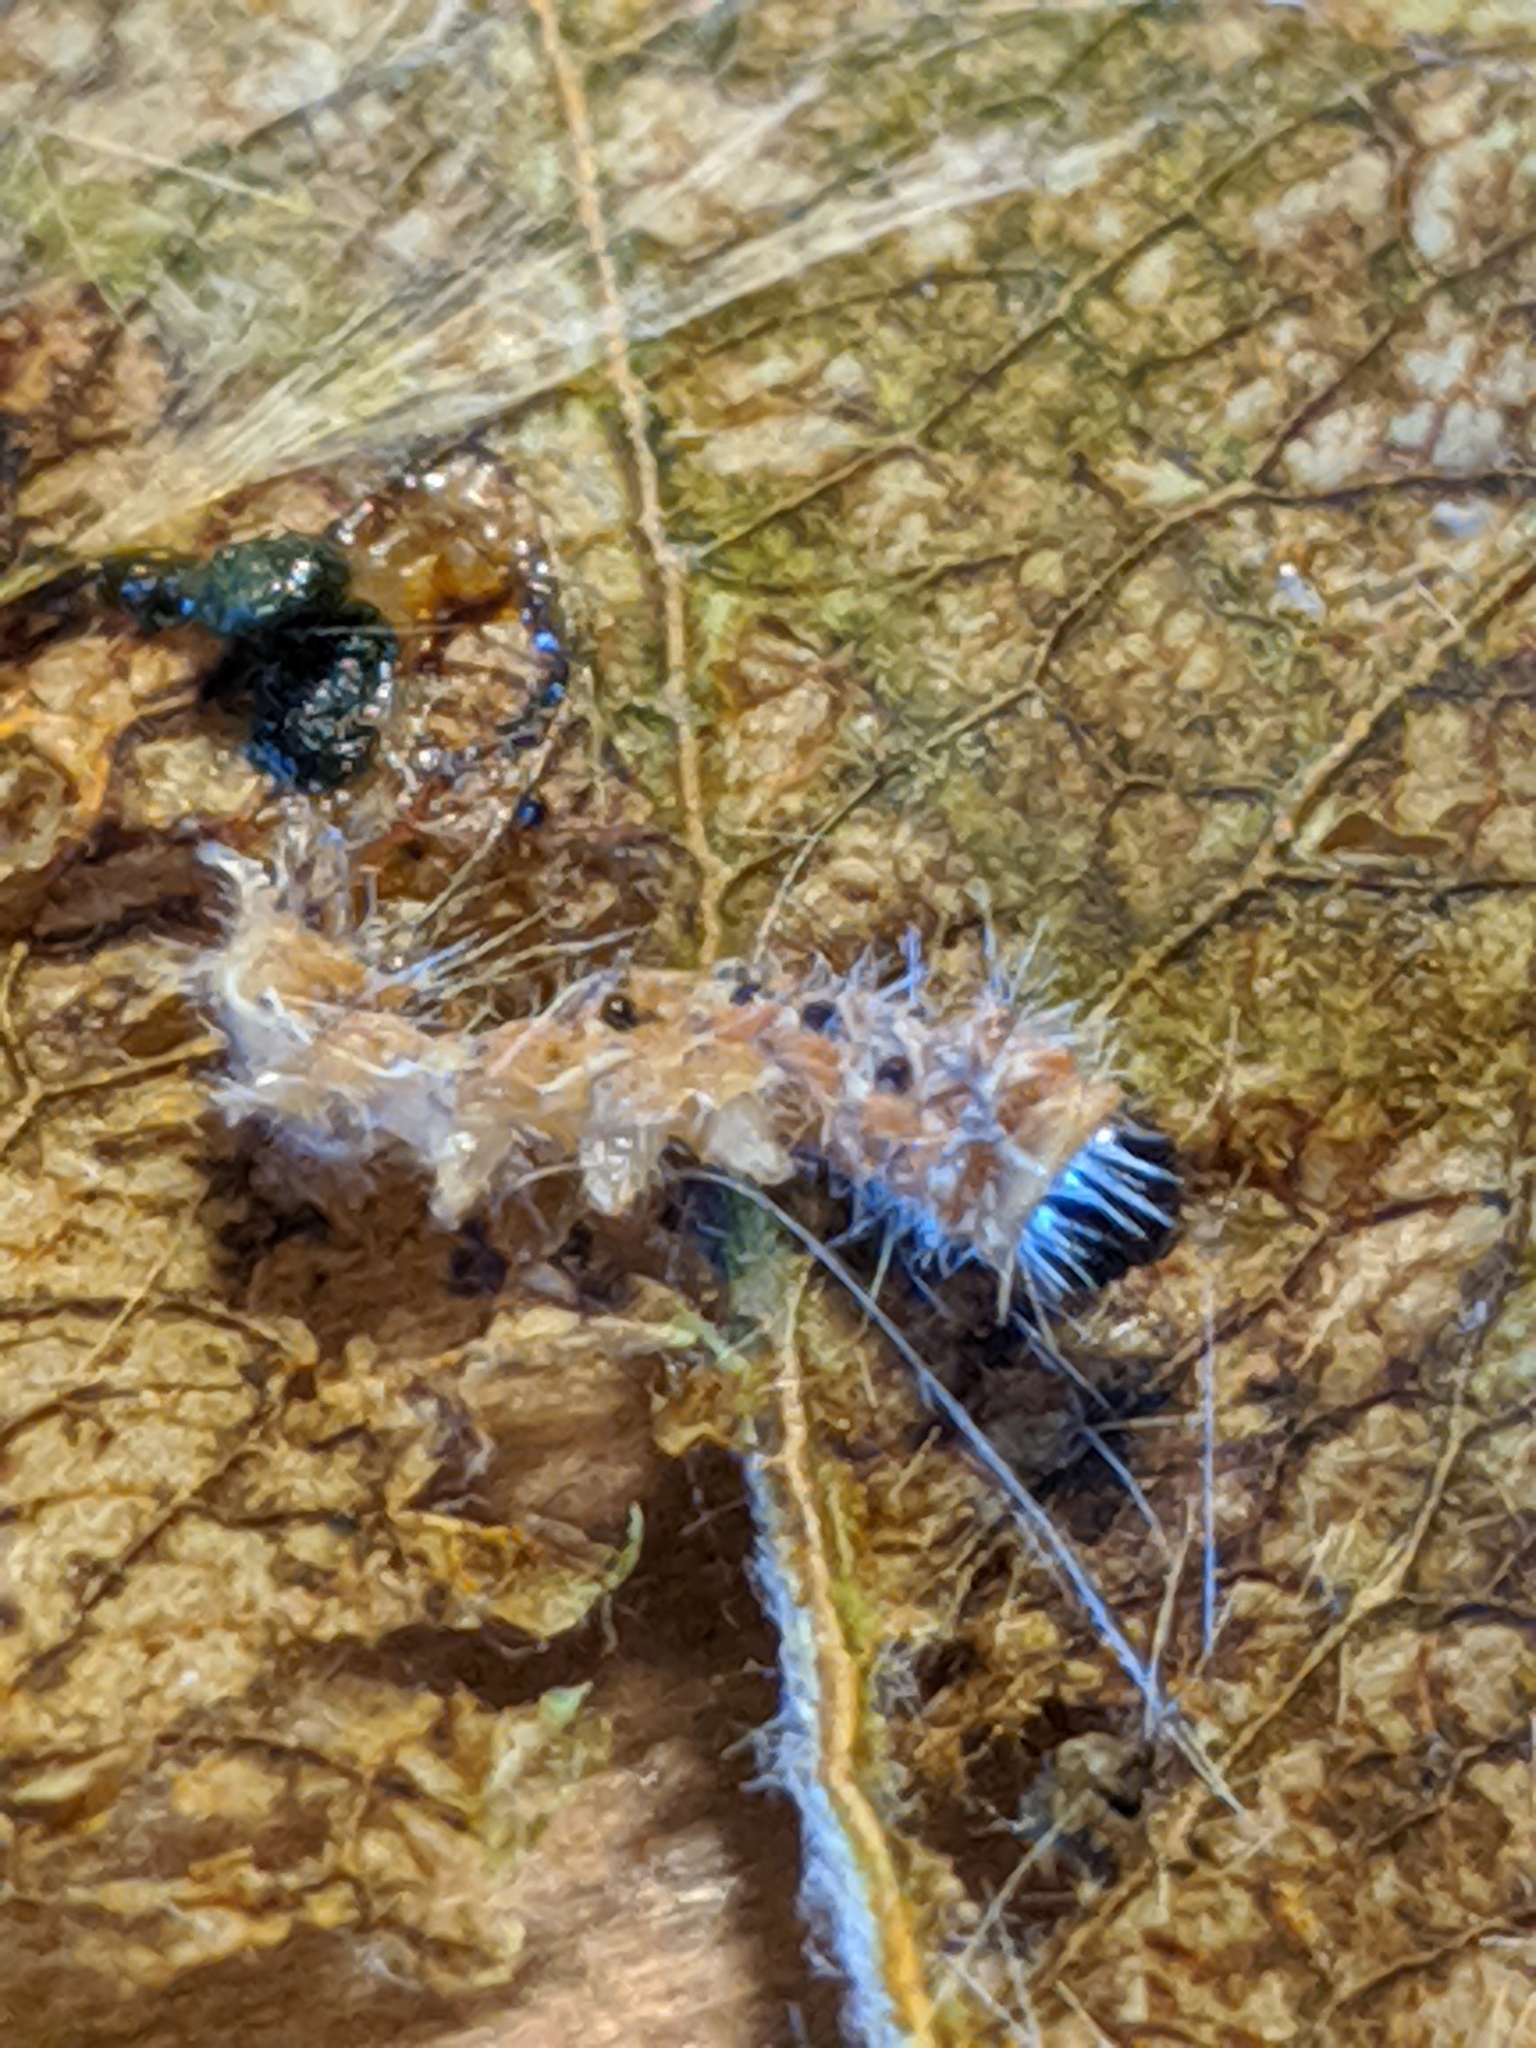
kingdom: Animalia
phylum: Arthropoda
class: Insecta
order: Lepidoptera
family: Erebidae
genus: Hyphantria
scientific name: Hyphantria cunea
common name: American white moth
